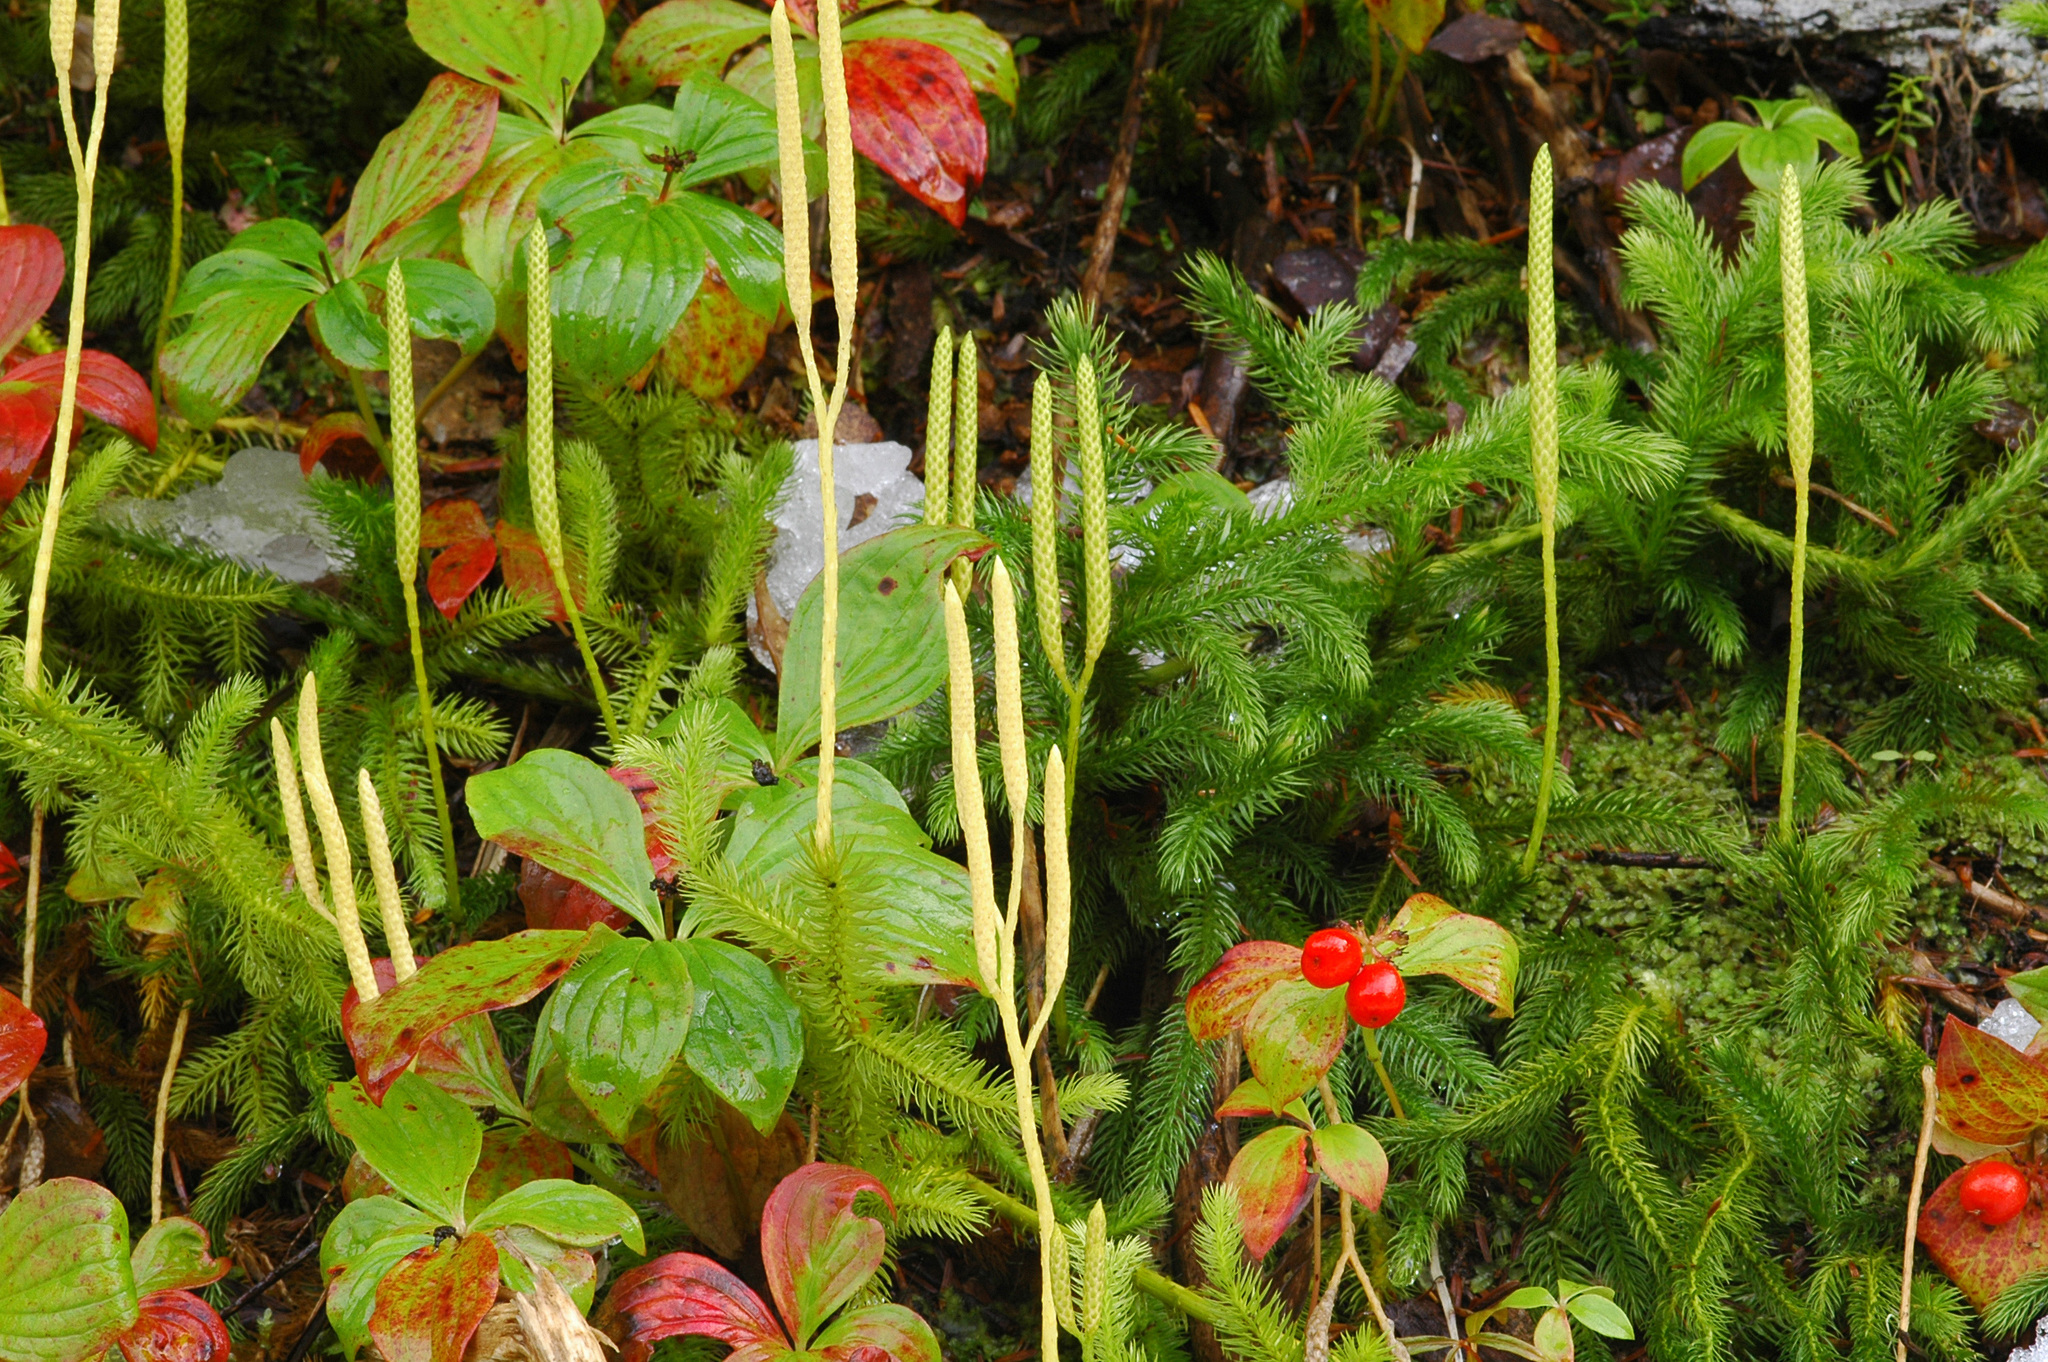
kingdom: Plantae
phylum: Tracheophyta
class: Lycopodiopsida
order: Lycopodiales
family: Lycopodiaceae
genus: Lycopodium
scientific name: Lycopodium clavatum
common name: Stag's-horn clubmoss
